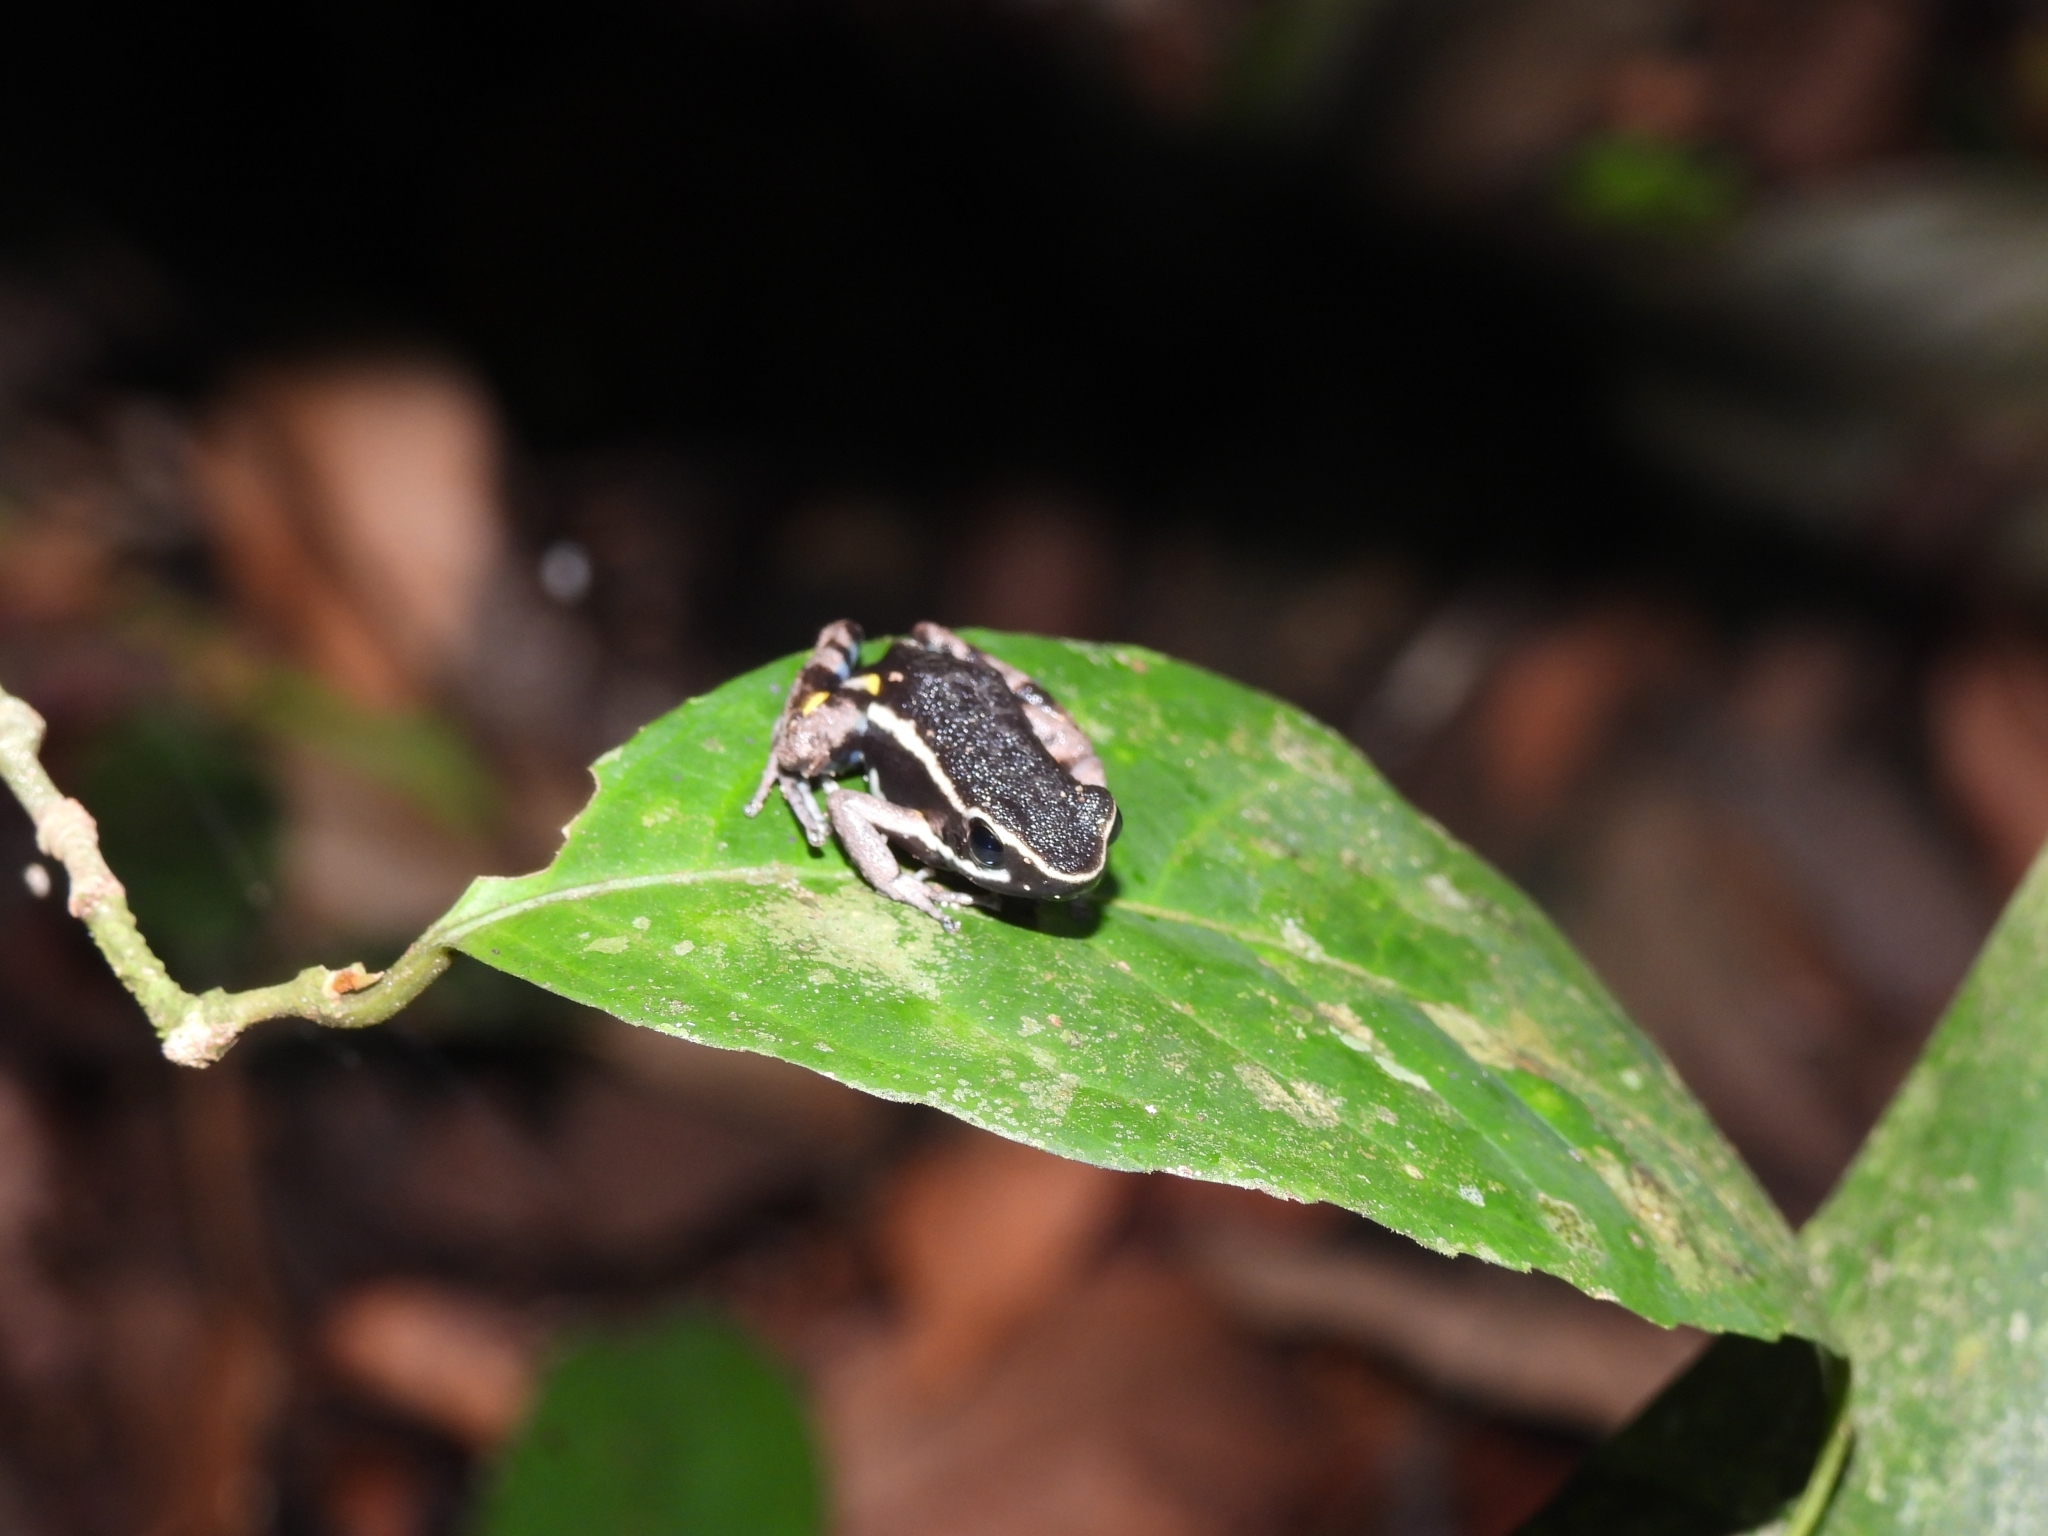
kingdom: Animalia
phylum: Chordata
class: Amphibia
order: Anura
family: Dendrobatidae
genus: Ameerega
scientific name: Ameerega hahneli
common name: Yurimaguas pioson frog
